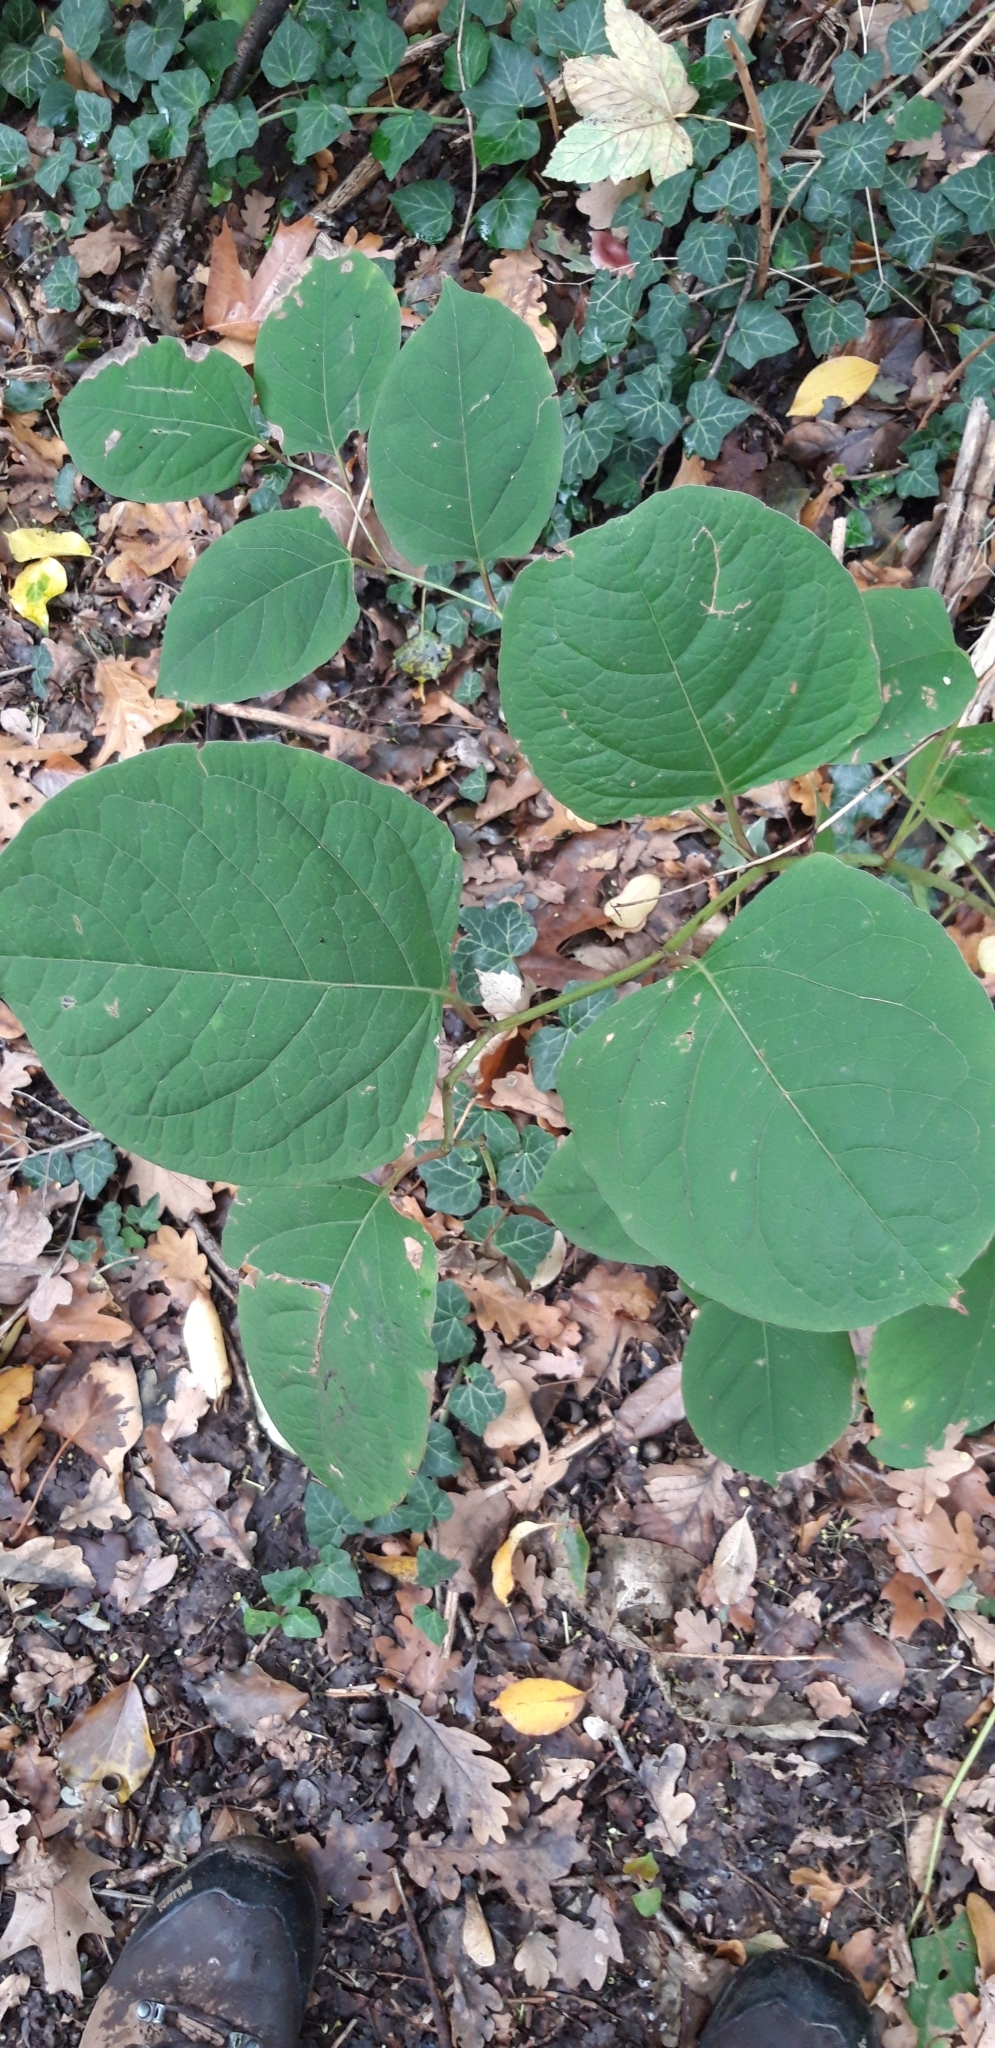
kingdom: Plantae
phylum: Tracheophyta
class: Magnoliopsida
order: Caryophyllales
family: Polygonaceae
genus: Reynoutria
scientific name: Reynoutria japonica
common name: Japanese knotweed
